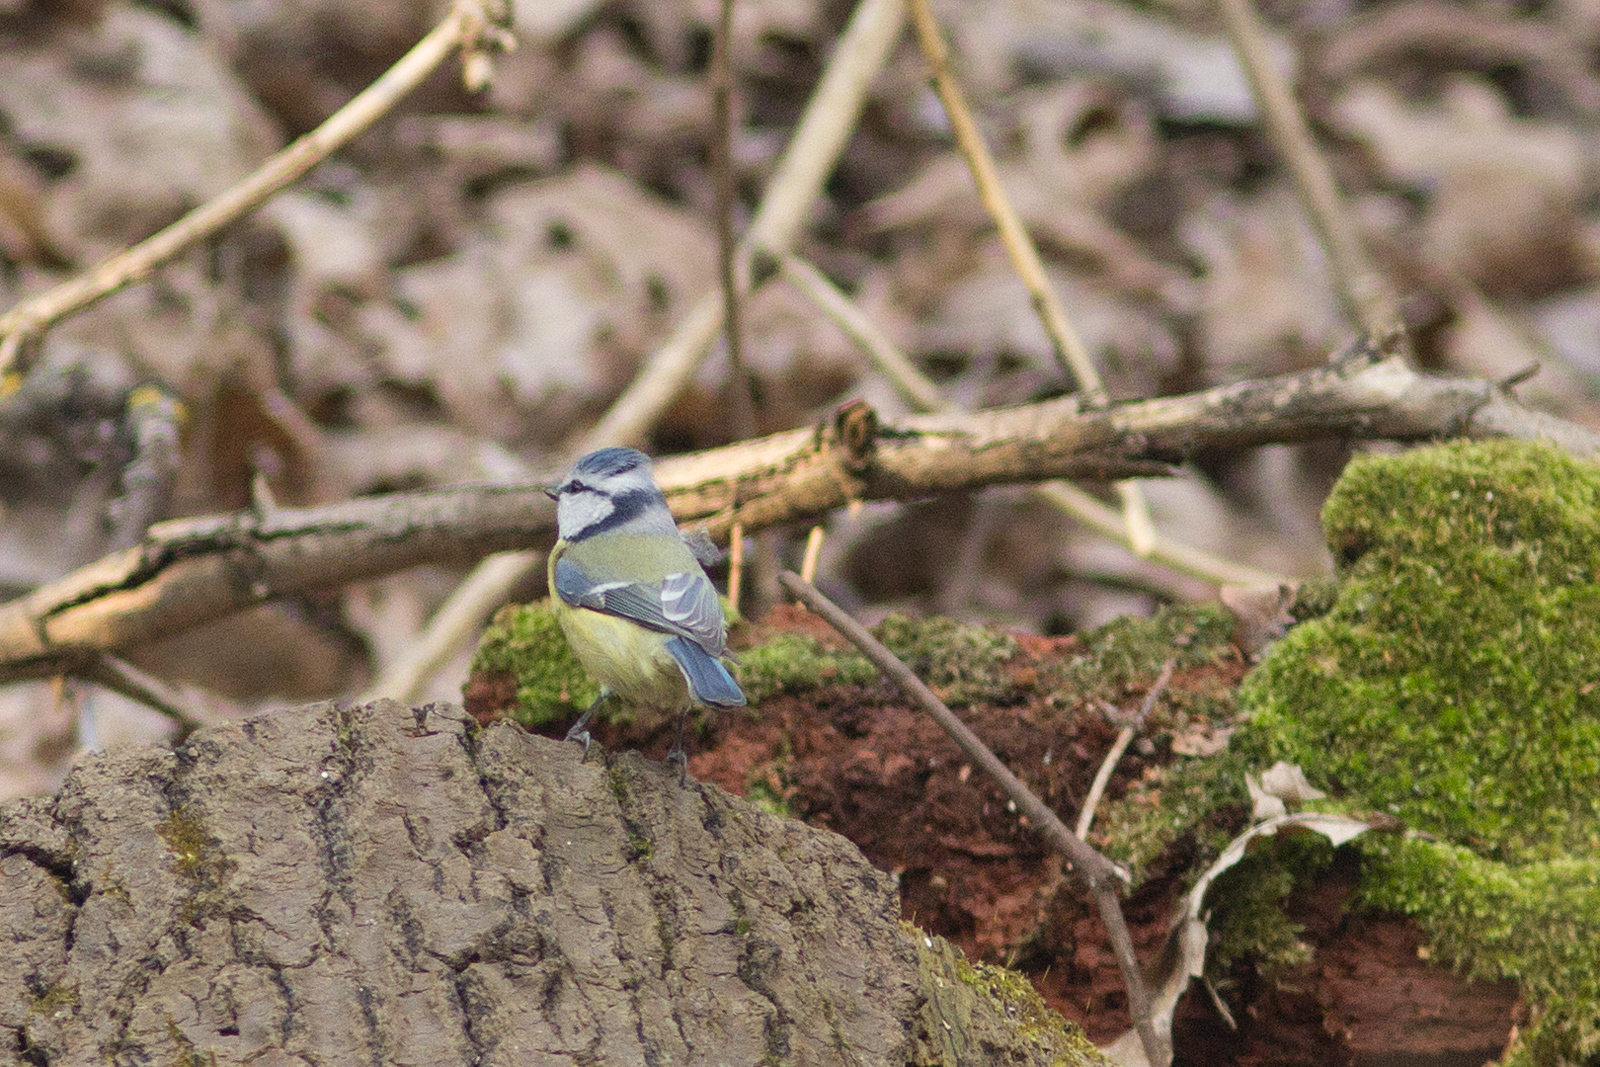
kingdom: Animalia
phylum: Chordata
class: Aves
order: Passeriformes
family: Paridae
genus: Cyanistes
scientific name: Cyanistes caeruleus
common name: Eurasian blue tit
